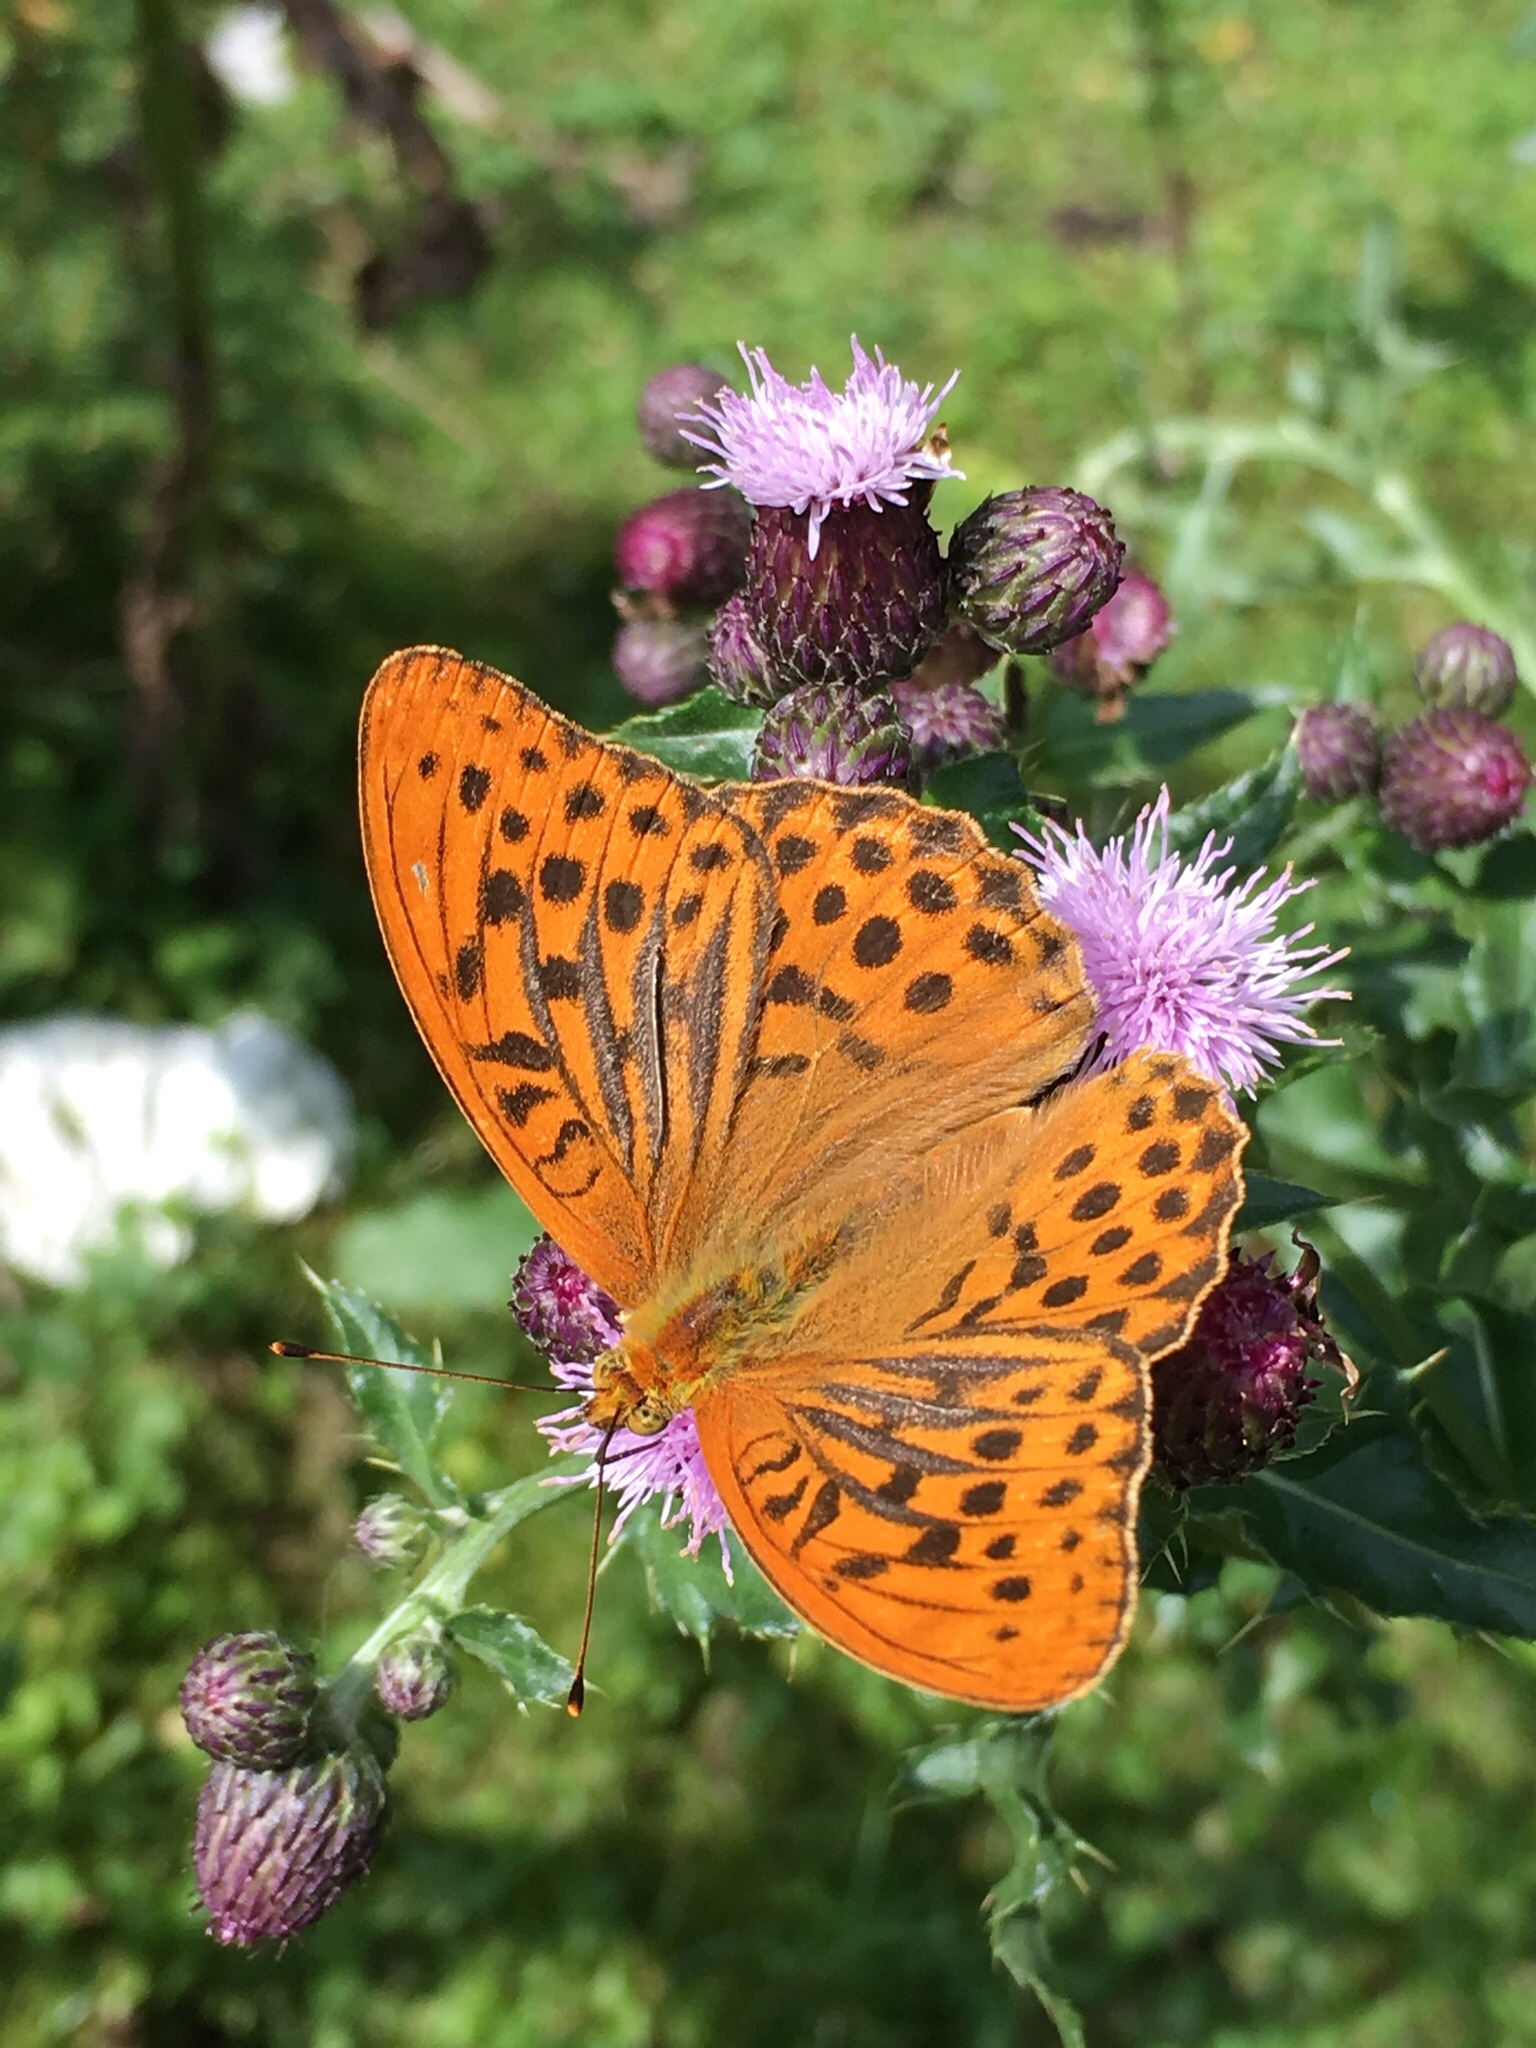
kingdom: Animalia
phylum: Arthropoda
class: Insecta
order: Lepidoptera
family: Nymphalidae
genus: Argynnis
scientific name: Argynnis paphia
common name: Silver-washed fritillary
